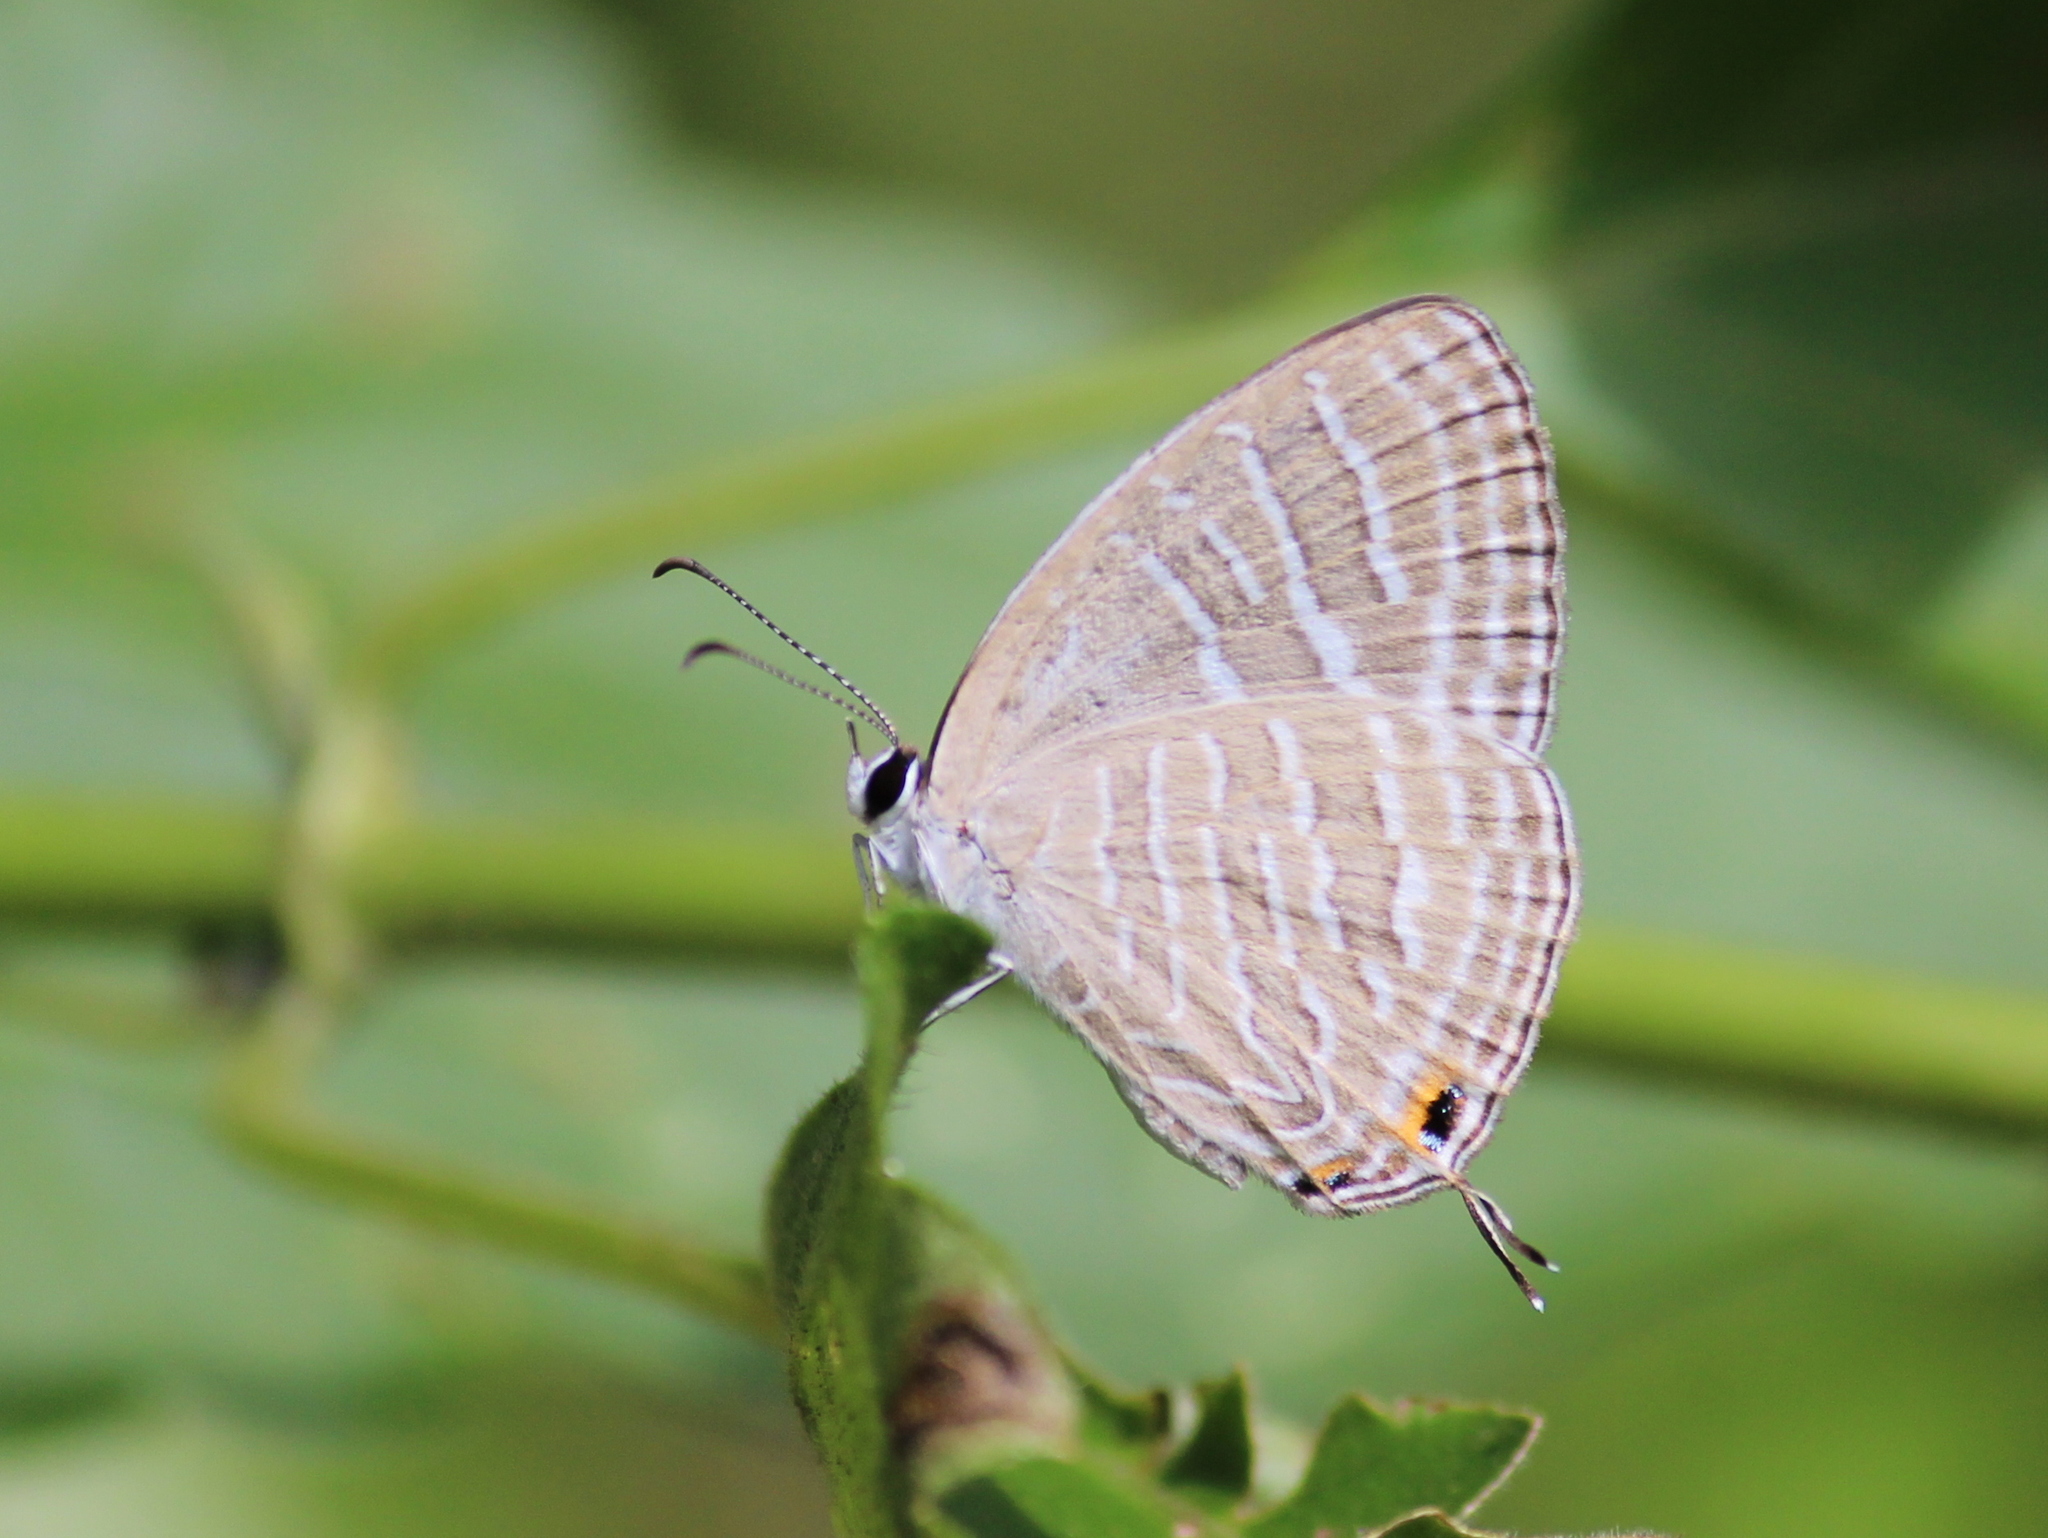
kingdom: Animalia
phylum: Arthropoda
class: Insecta
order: Lepidoptera
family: Lycaenidae
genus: Jamides
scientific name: Jamides celeno
